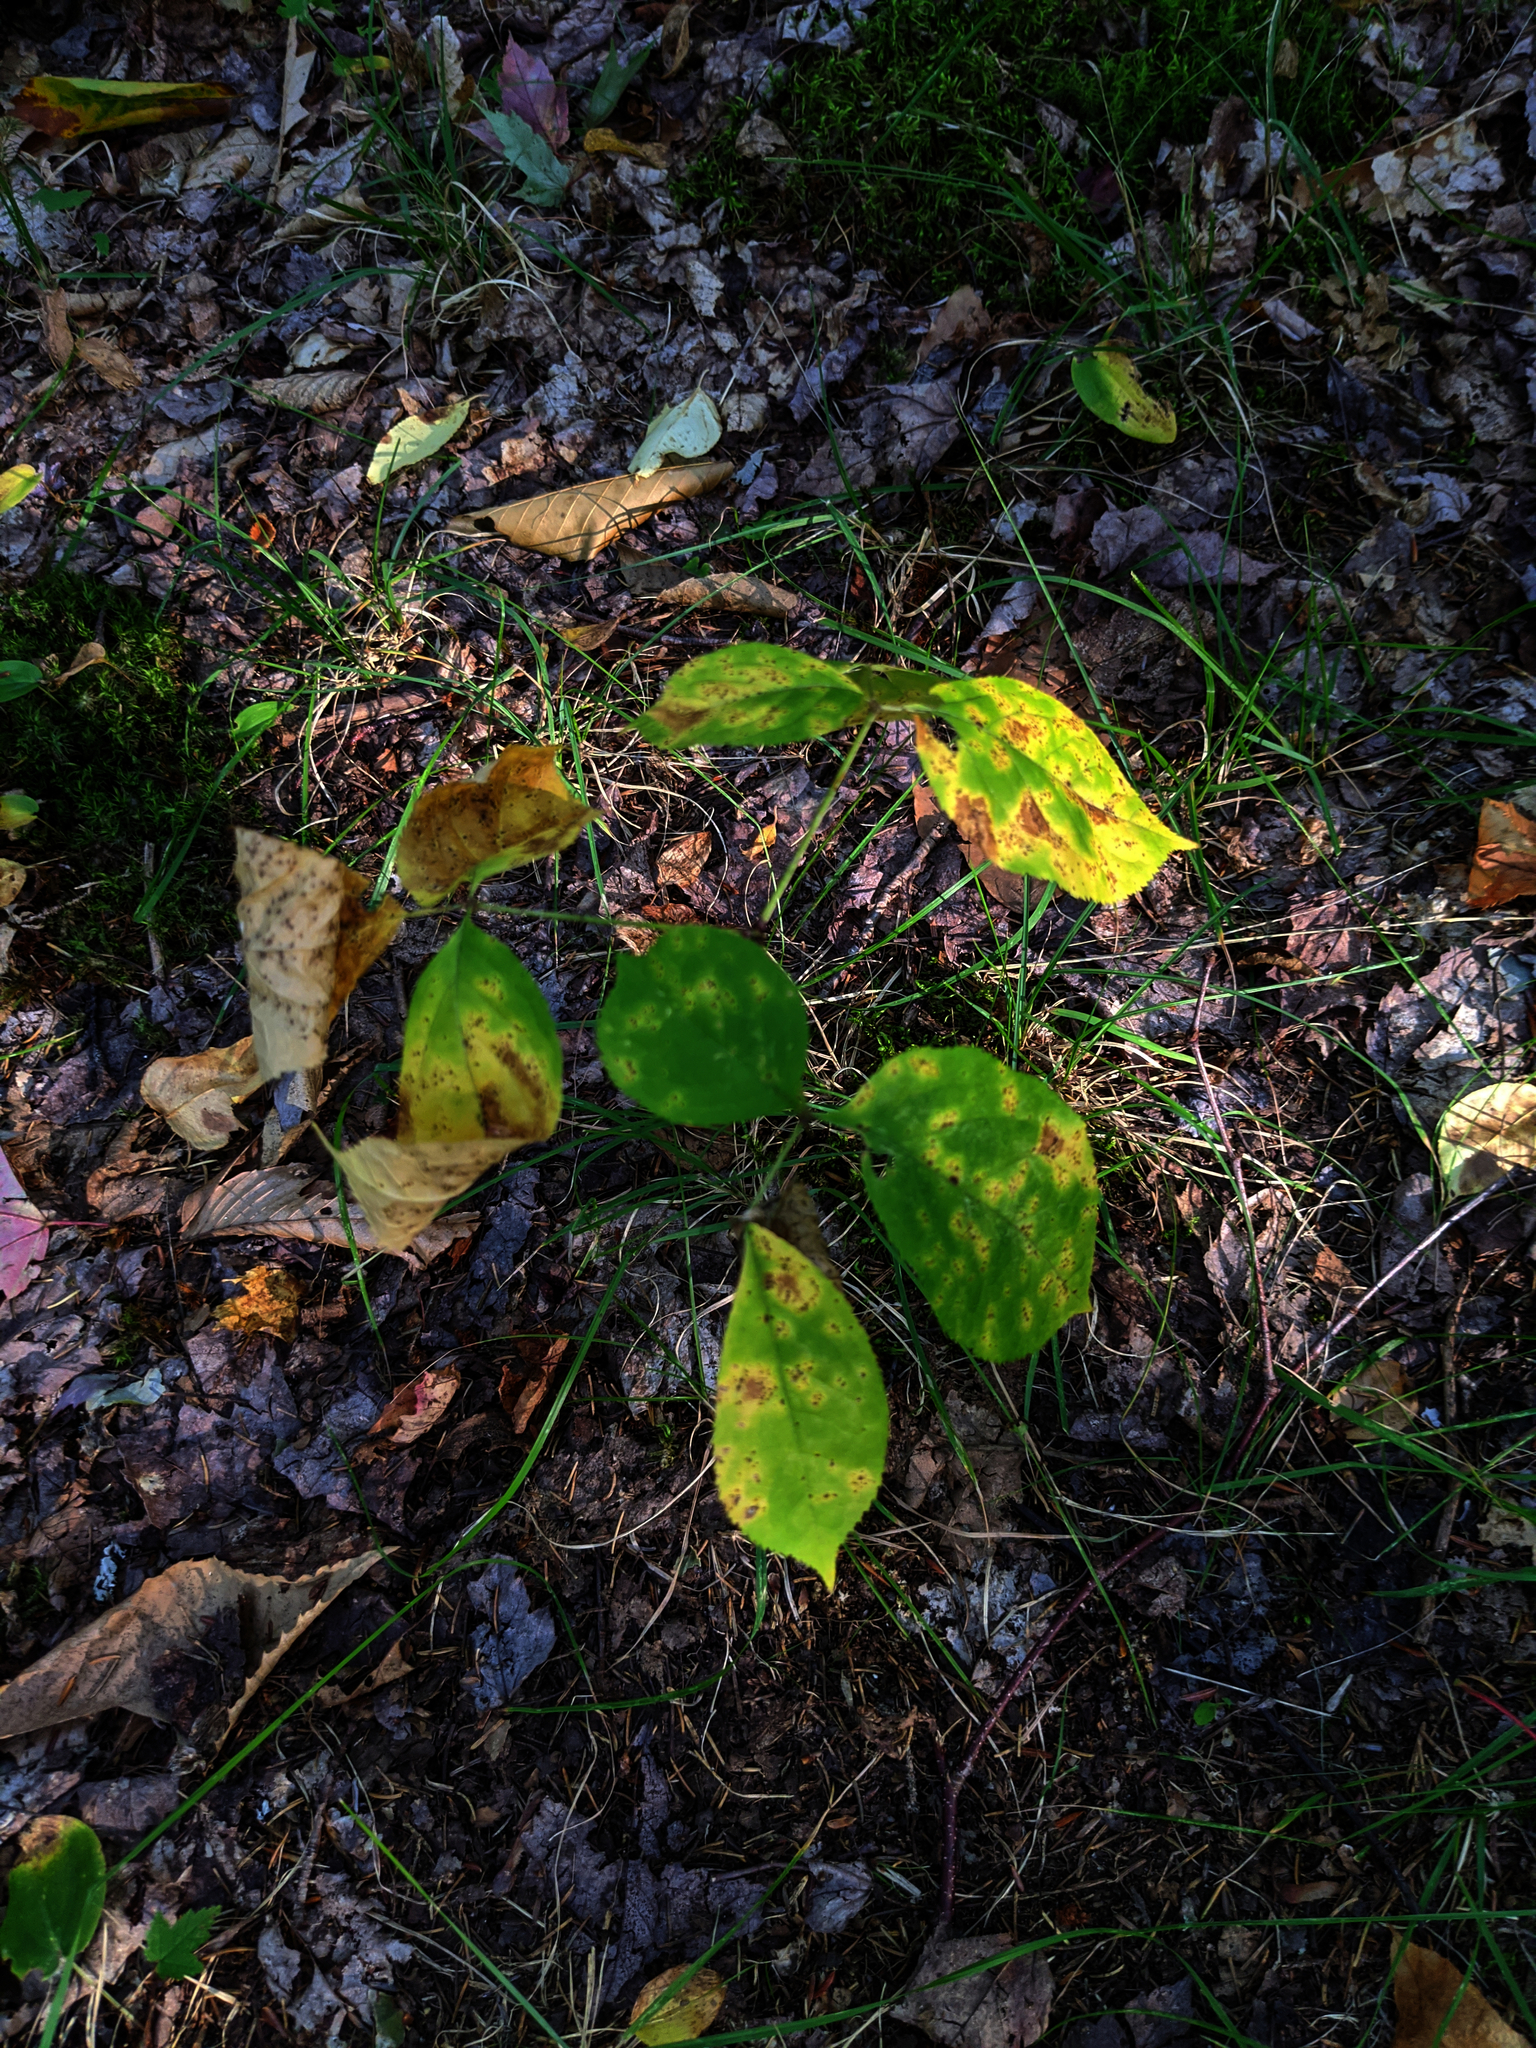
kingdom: Plantae
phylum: Tracheophyta
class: Magnoliopsida
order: Apiales
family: Araliaceae
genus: Aralia
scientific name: Aralia nudicaulis
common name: Wild sarsaparilla
